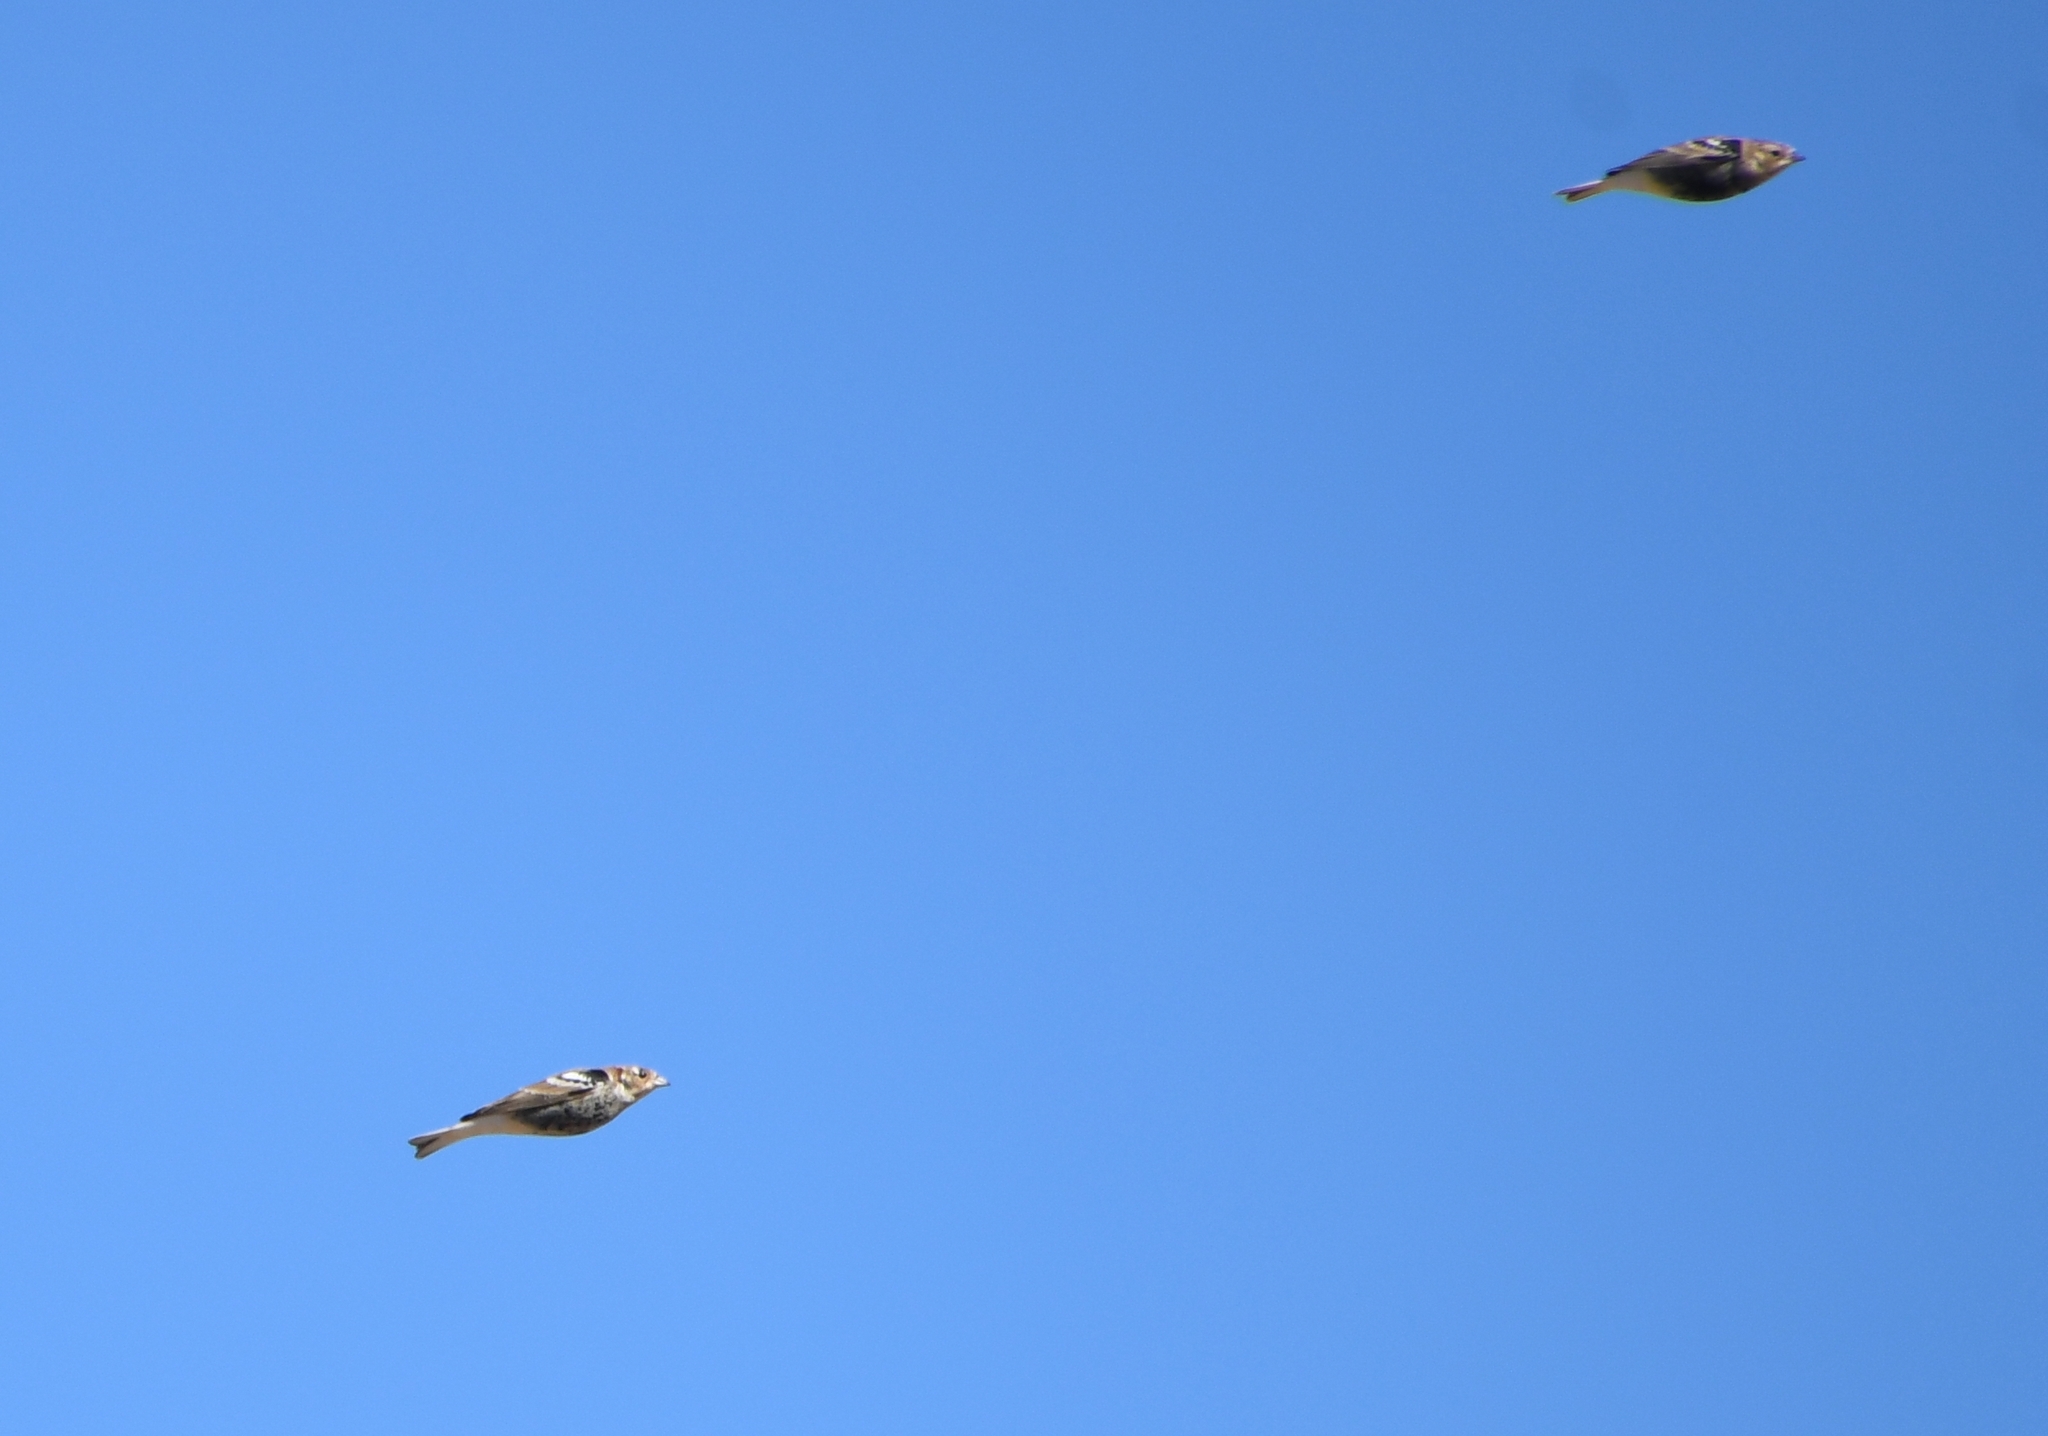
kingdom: Animalia
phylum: Chordata
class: Aves
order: Passeriformes
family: Calcariidae
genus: Calcarius
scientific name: Calcarius ornatus
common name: Chestnut-collared longspur
